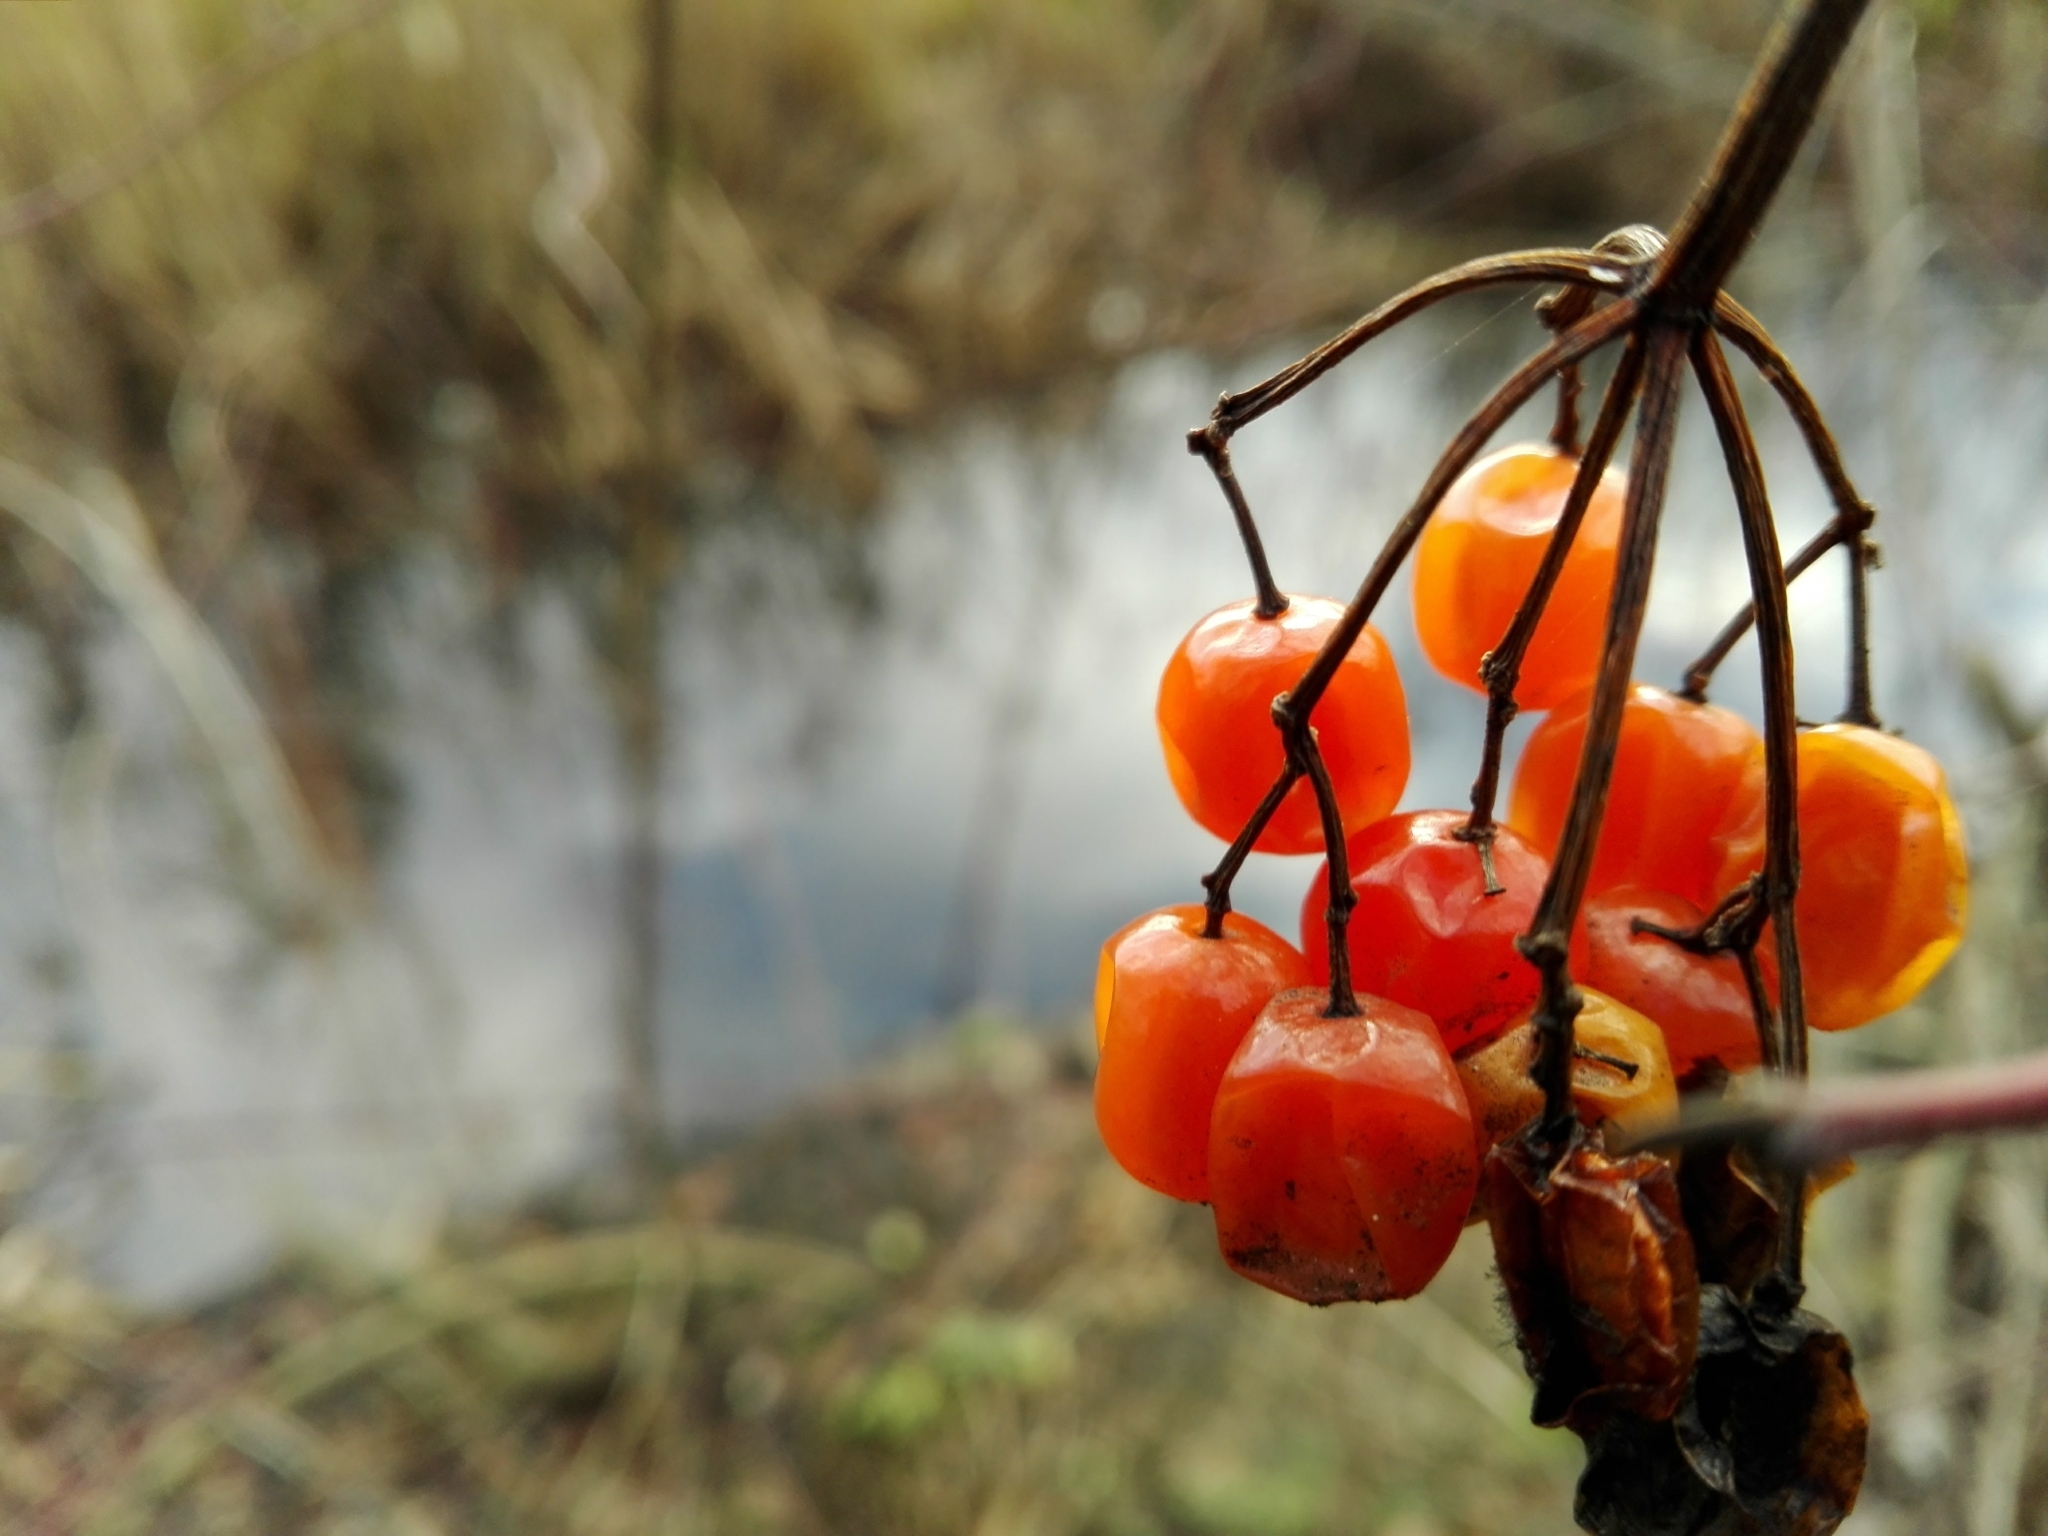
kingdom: Plantae
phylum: Tracheophyta
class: Magnoliopsida
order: Dipsacales
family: Viburnaceae
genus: Viburnum
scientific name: Viburnum opulus
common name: Guelder-rose
